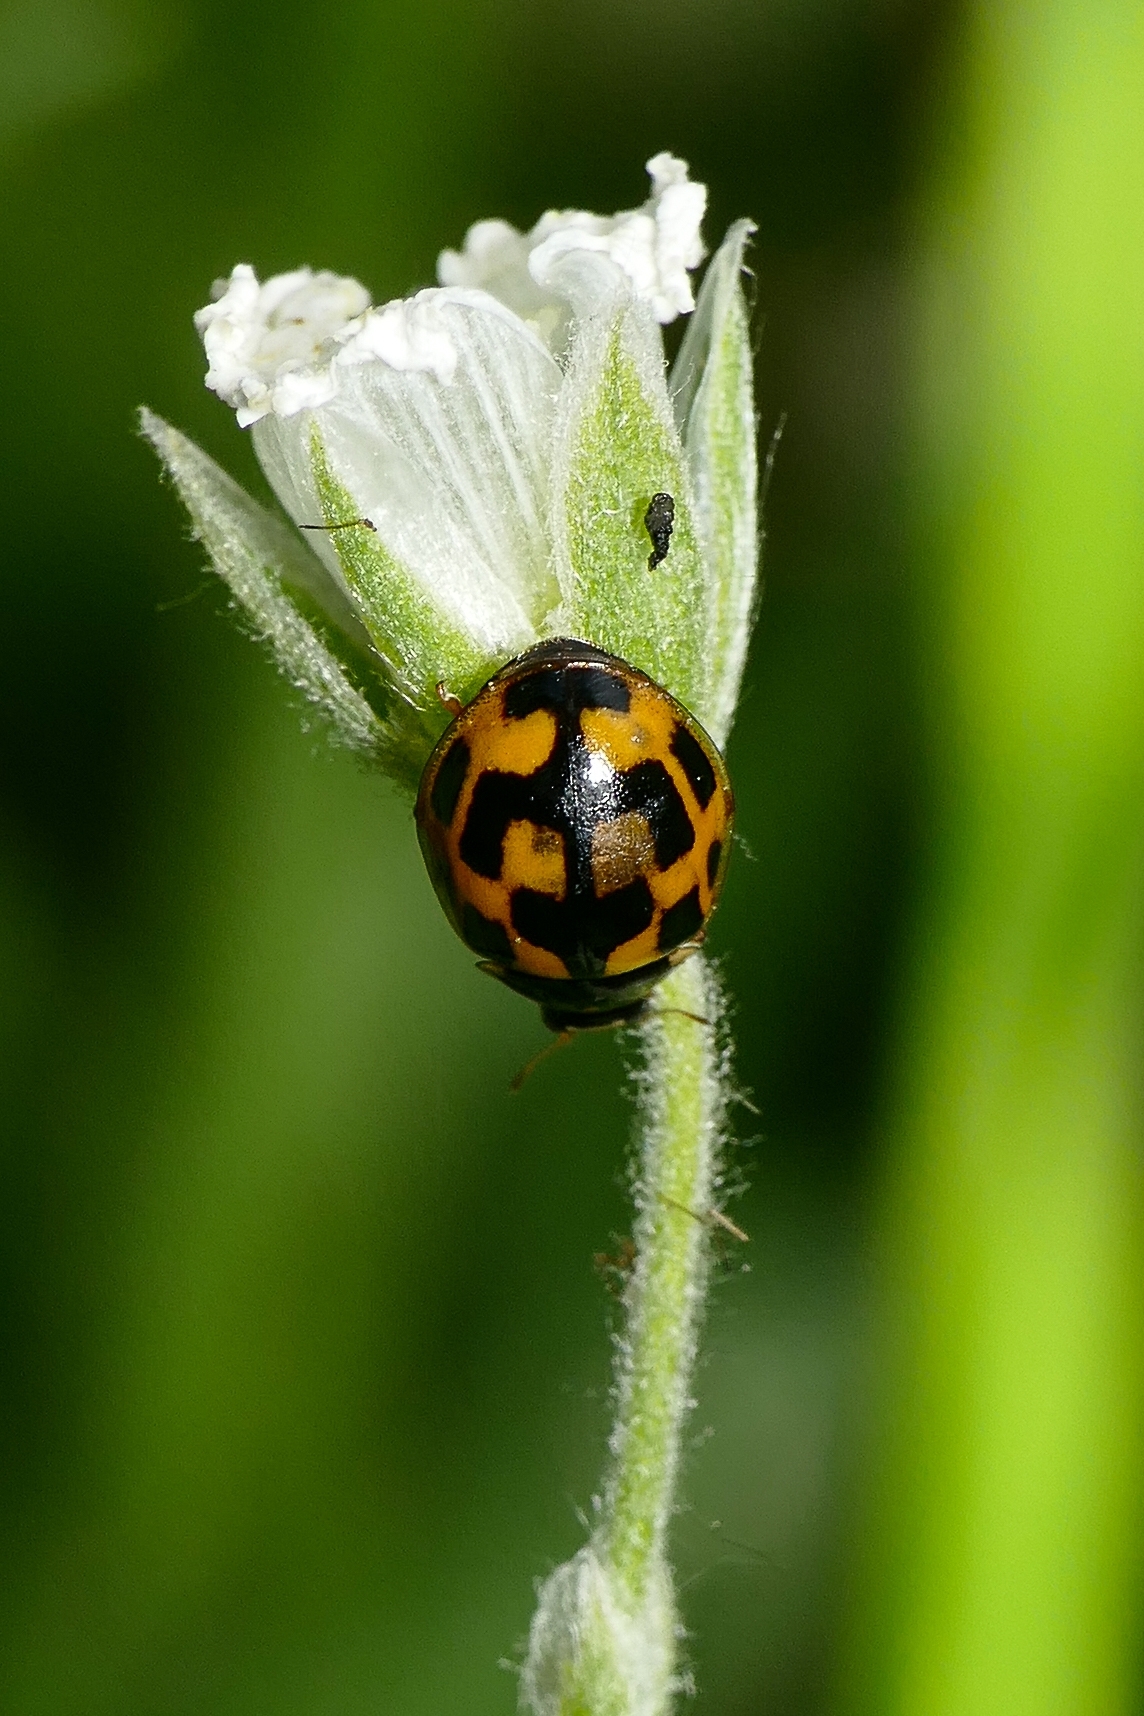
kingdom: Animalia
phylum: Arthropoda
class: Insecta
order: Coleoptera
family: Coccinellidae
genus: Propylaea
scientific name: Propylaea quatuordecimpunctata
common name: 14-spotted ladybird beetle
